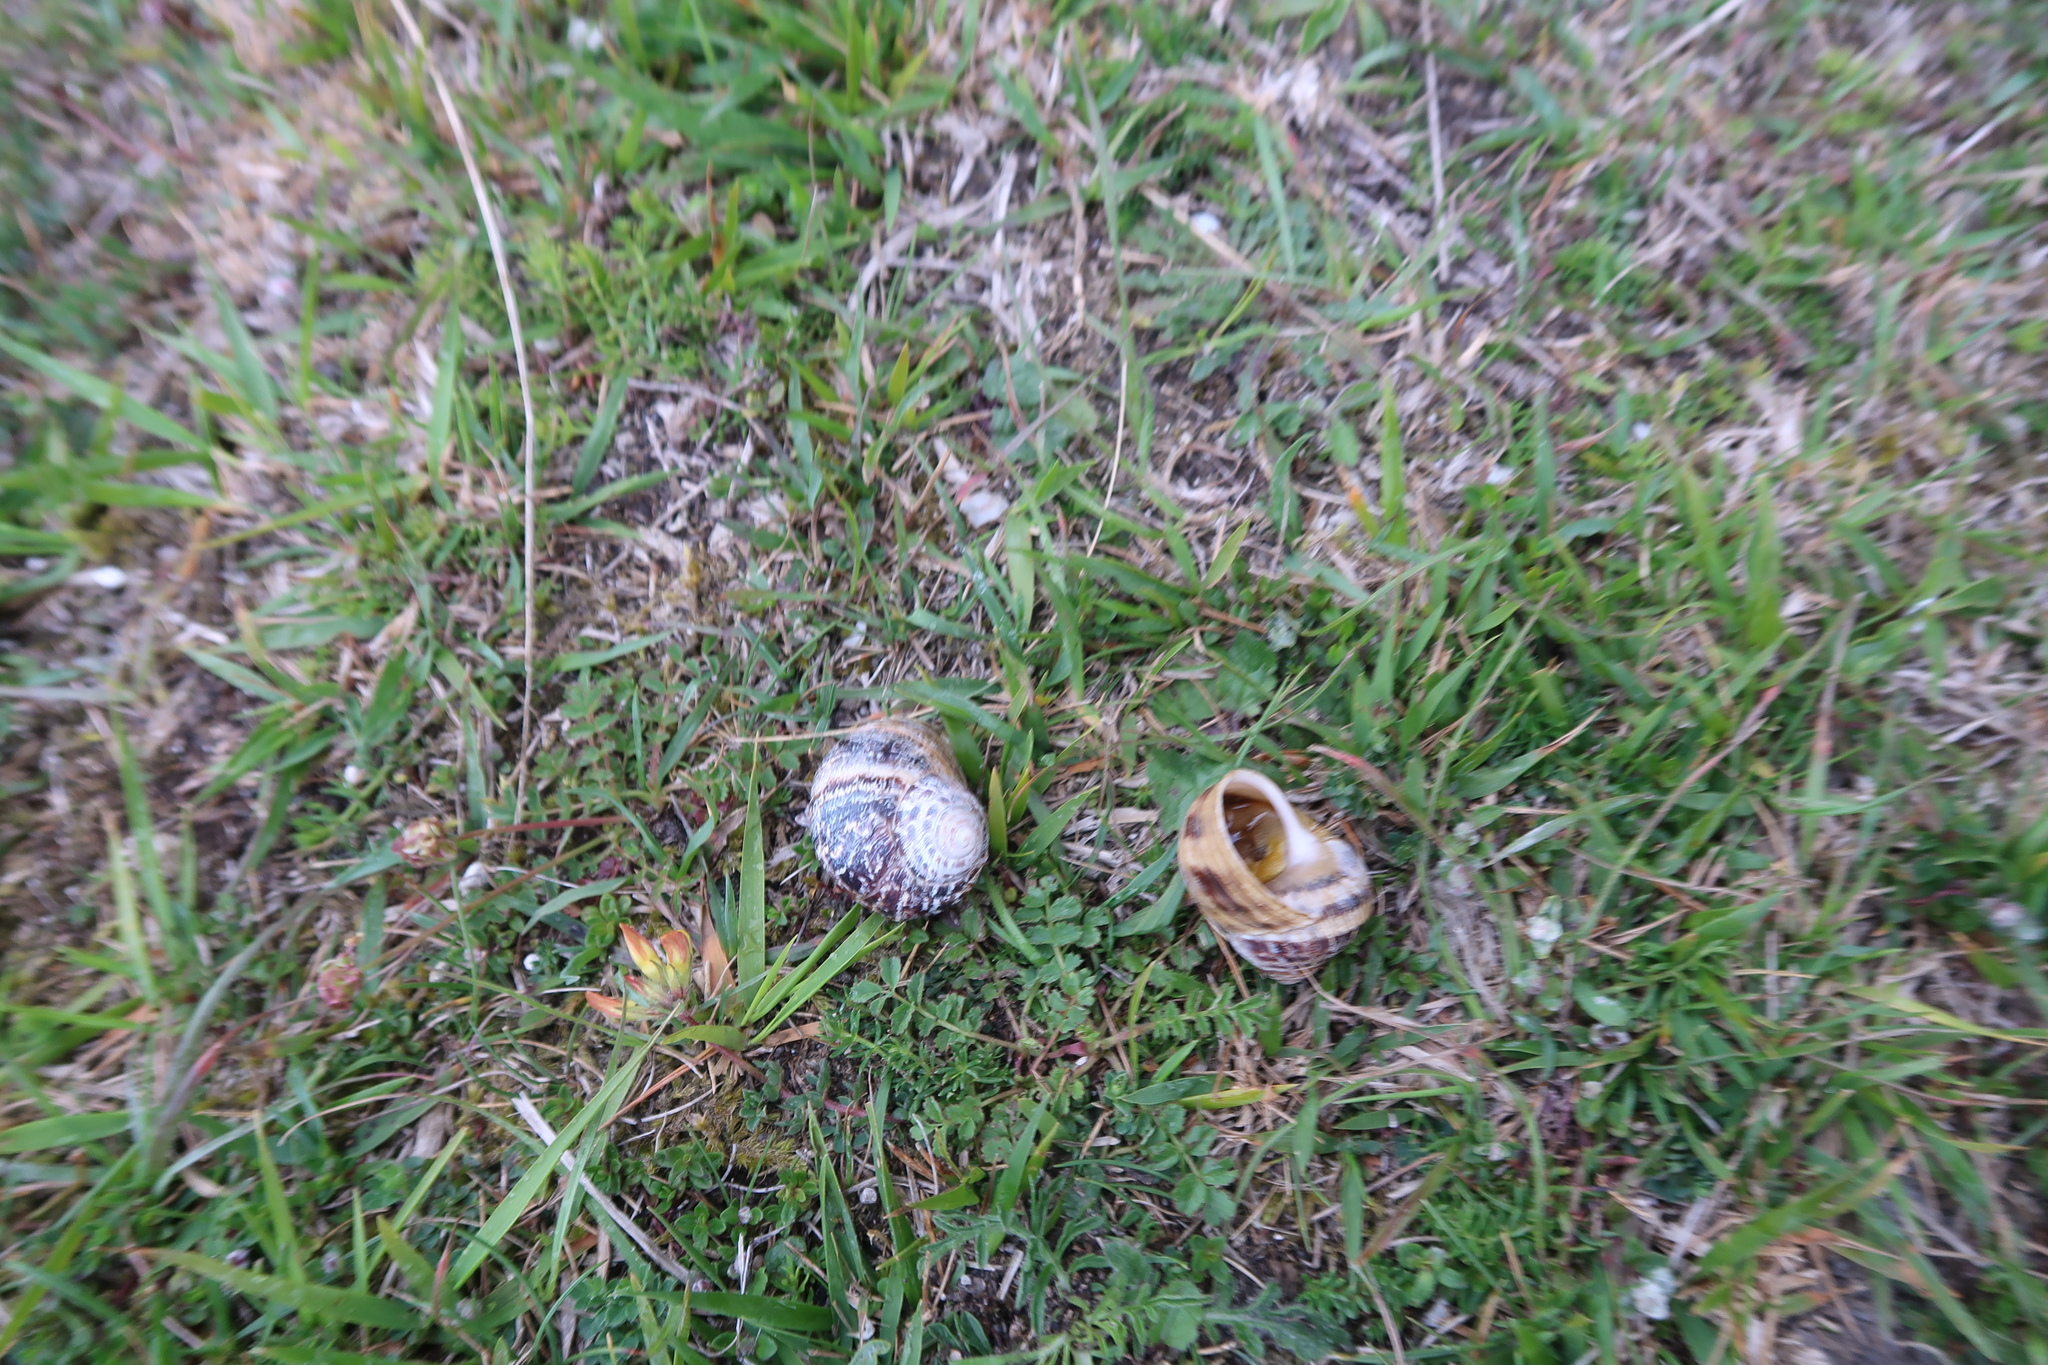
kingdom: Animalia
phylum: Mollusca
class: Gastropoda
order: Stylommatophora
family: Helicidae
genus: Cornu
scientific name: Cornu aspersum
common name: Brown garden snail
